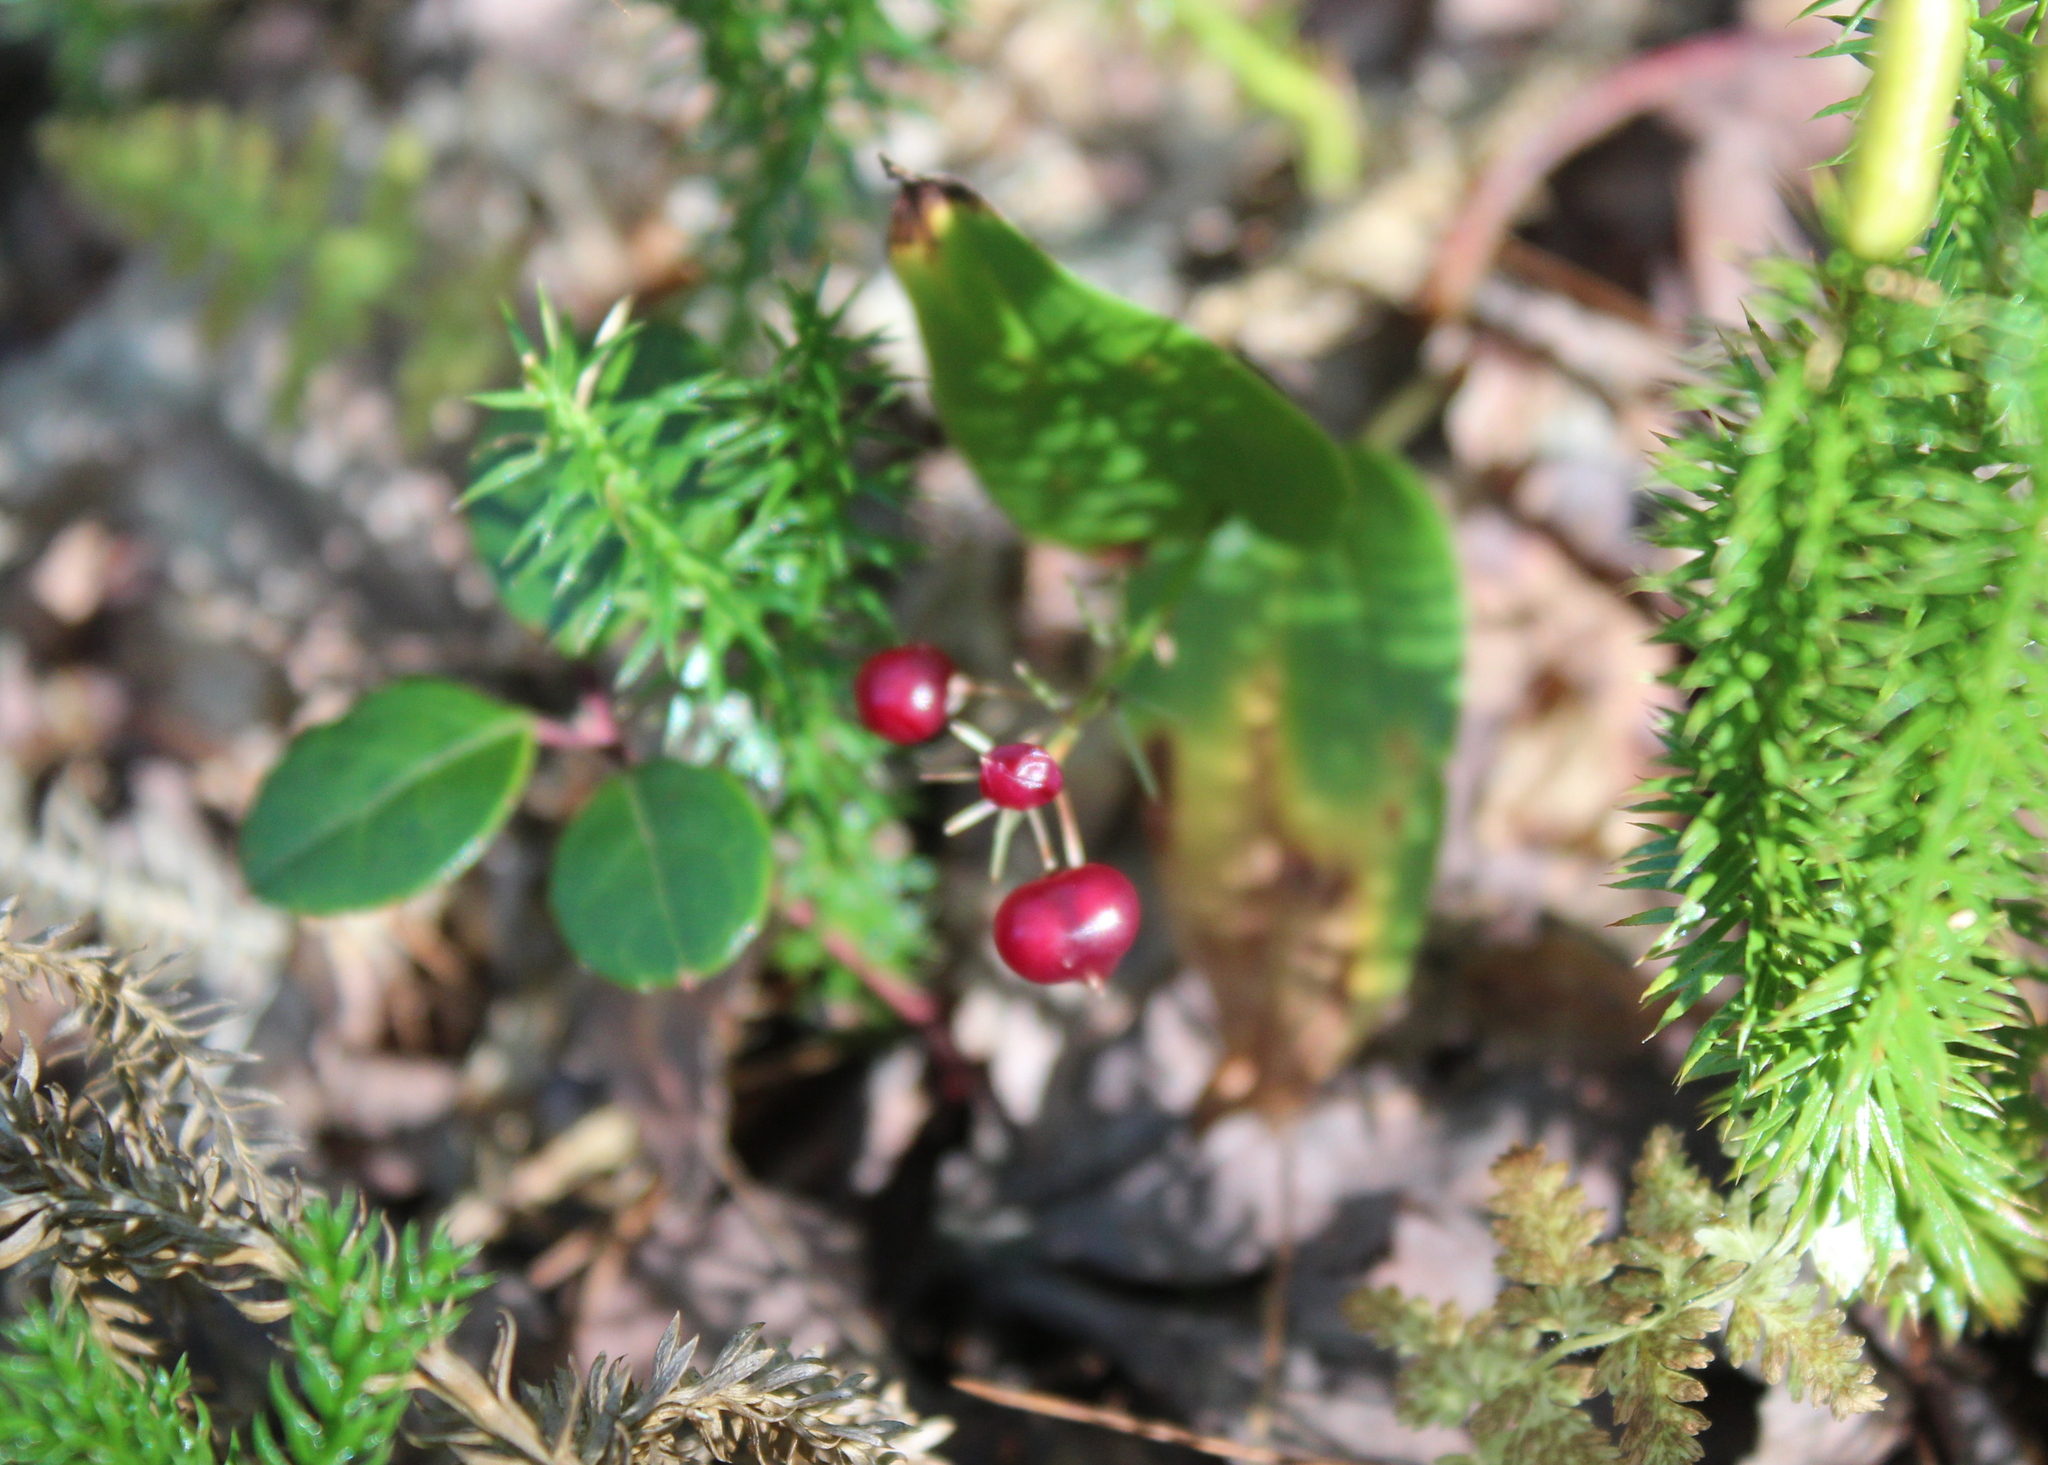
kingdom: Plantae
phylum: Tracheophyta
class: Liliopsida
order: Asparagales
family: Asparagaceae
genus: Maianthemum
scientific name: Maianthemum canadense
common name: False lily-of-the-valley
